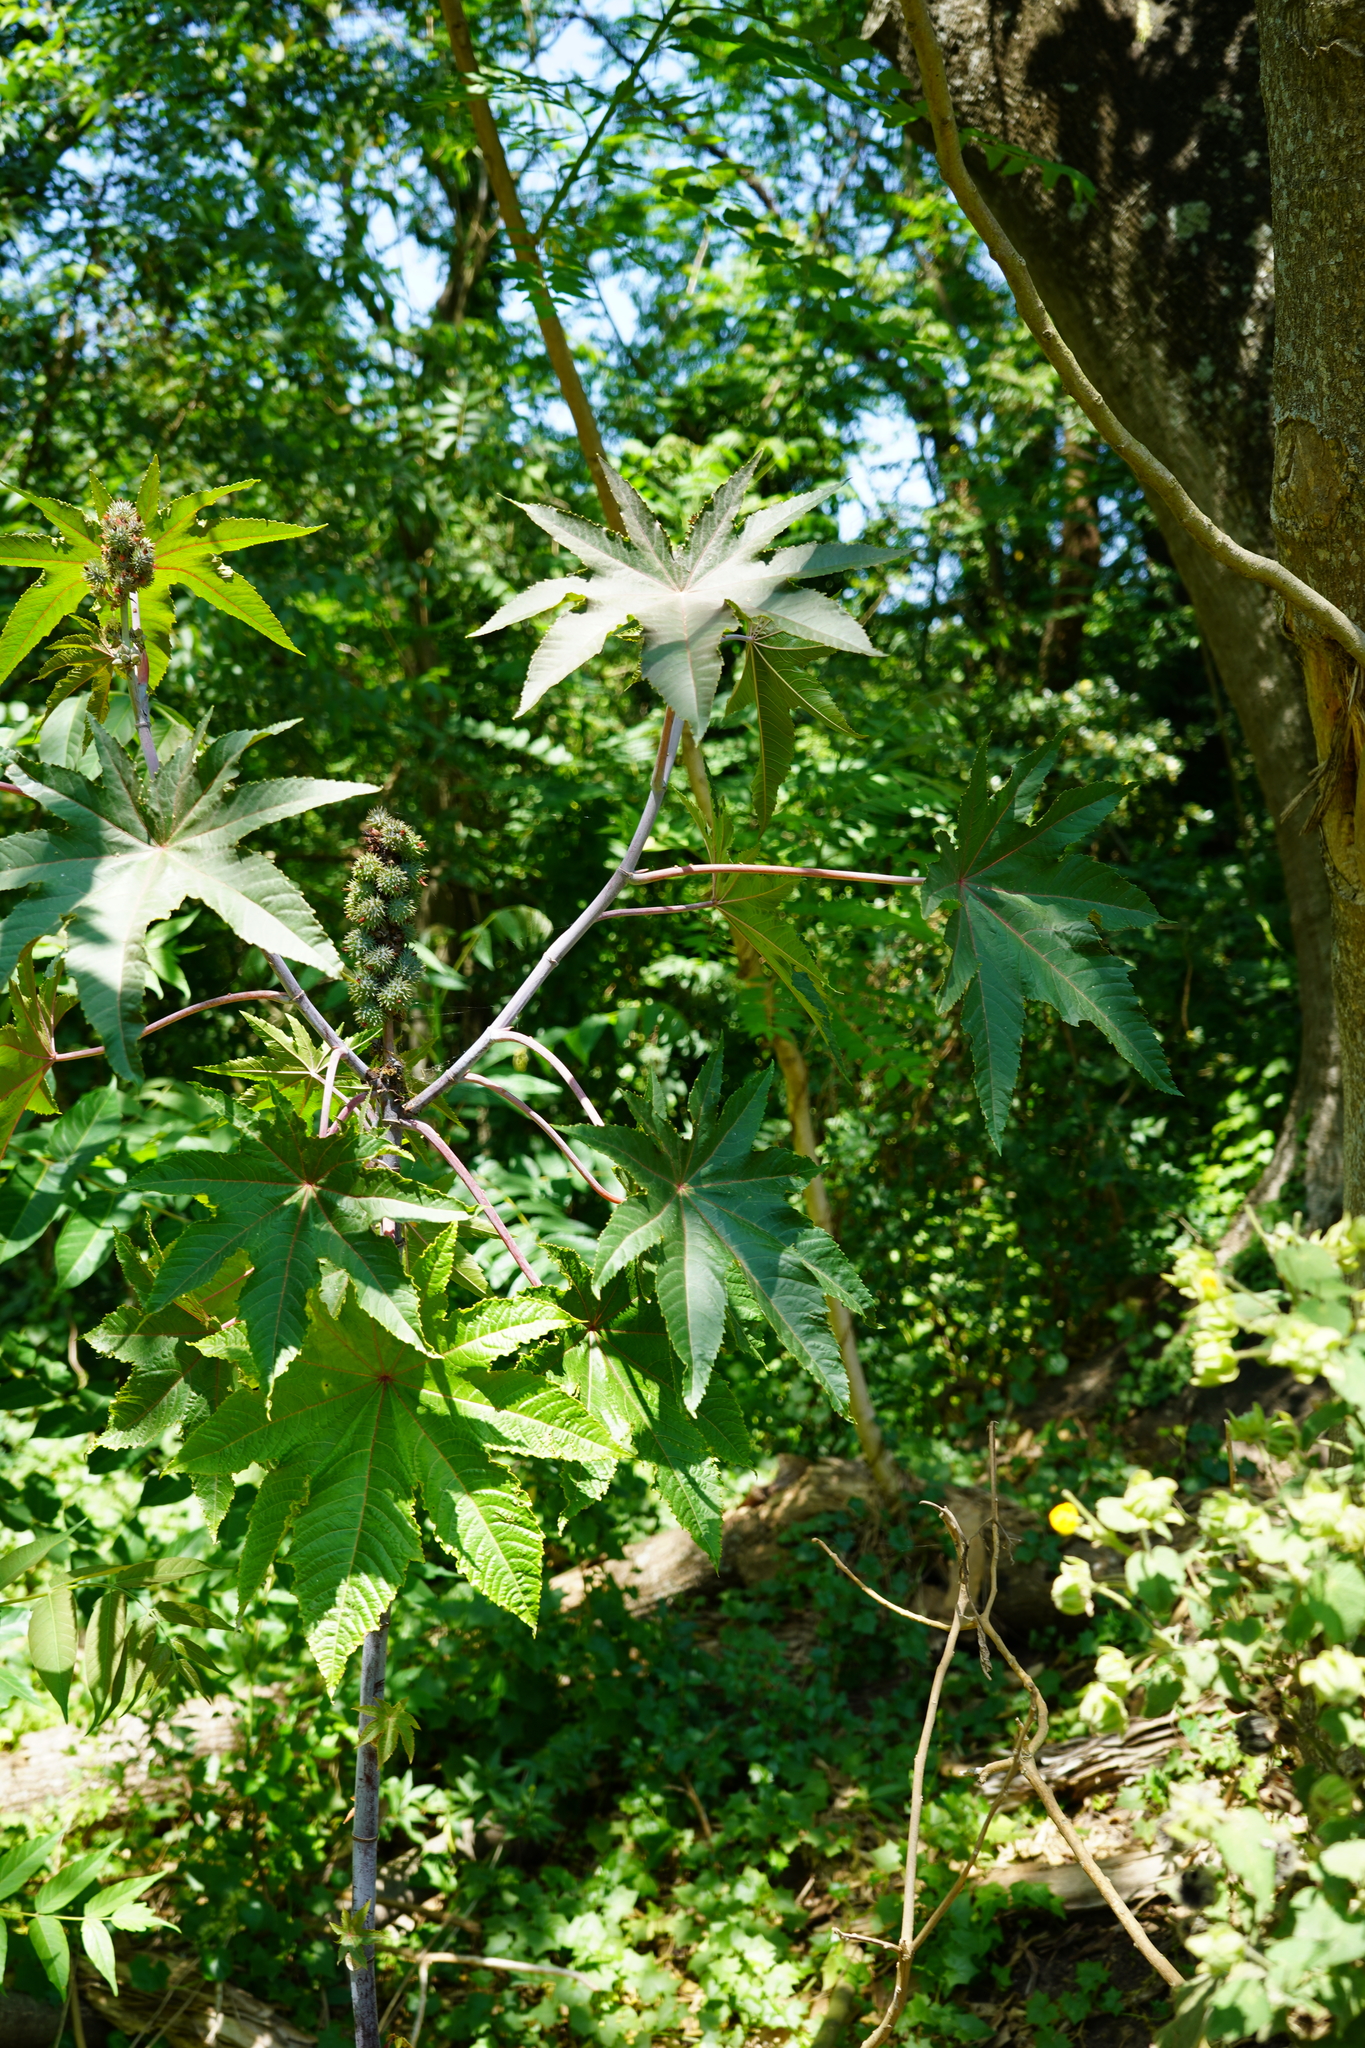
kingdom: Plantae
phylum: Tracheophyta
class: Magnoliopsida
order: Malpighiales
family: Euphorbiaceae
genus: Ricinus
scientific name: Ricinus communis
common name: Castor-oil-plant
